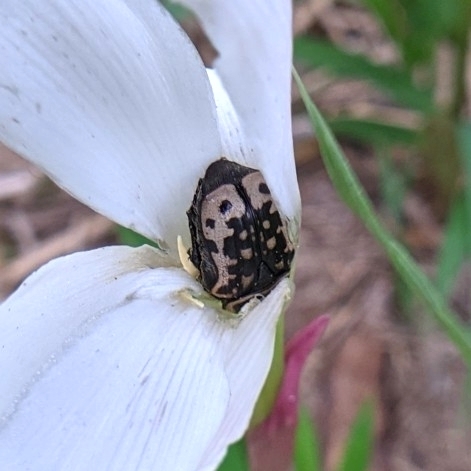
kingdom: Animalia
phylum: Arthropoda
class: Insecta
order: Coleoptera
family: Scarabaeidae
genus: Euphoria
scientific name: Euphoria kernii
